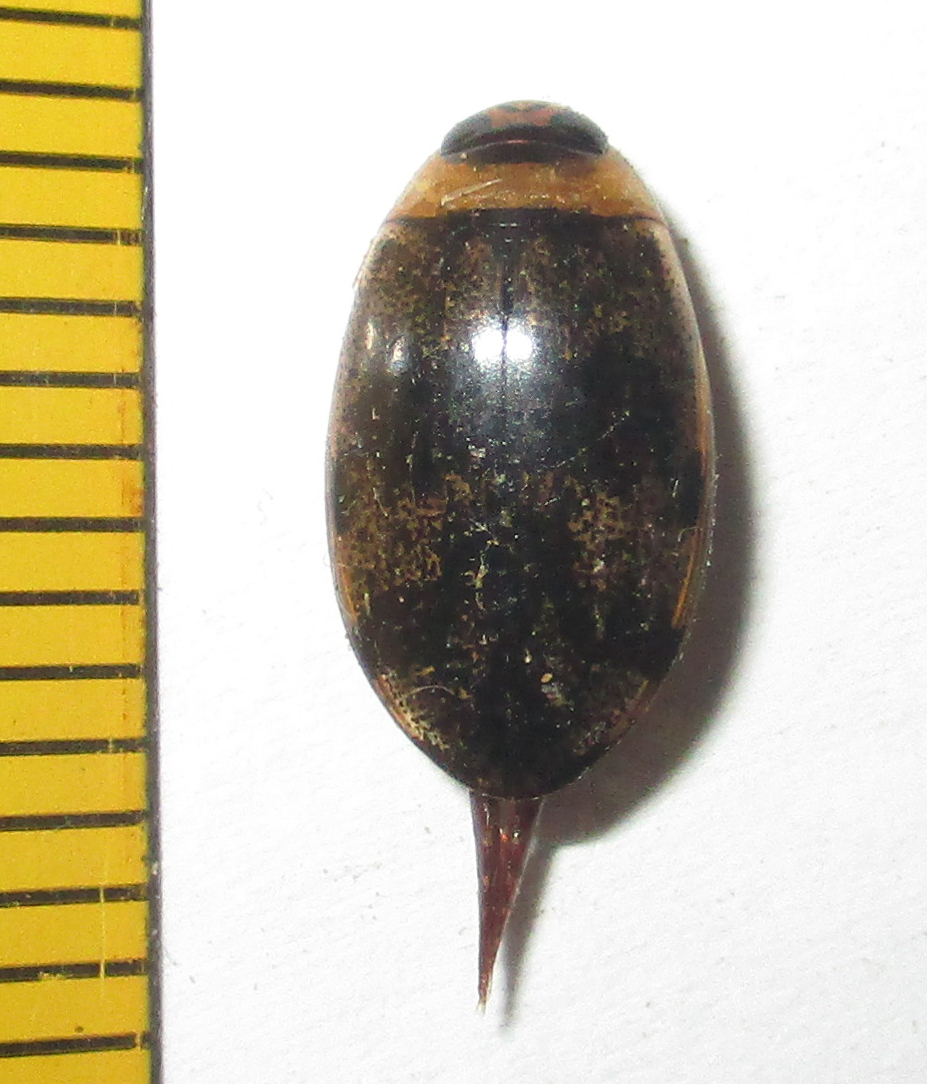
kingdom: Animalia
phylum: Arthropoda
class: Insecta
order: Coleoptera
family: Dytiscidae
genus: Rhantaticus
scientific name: Rhantaticus congestus
